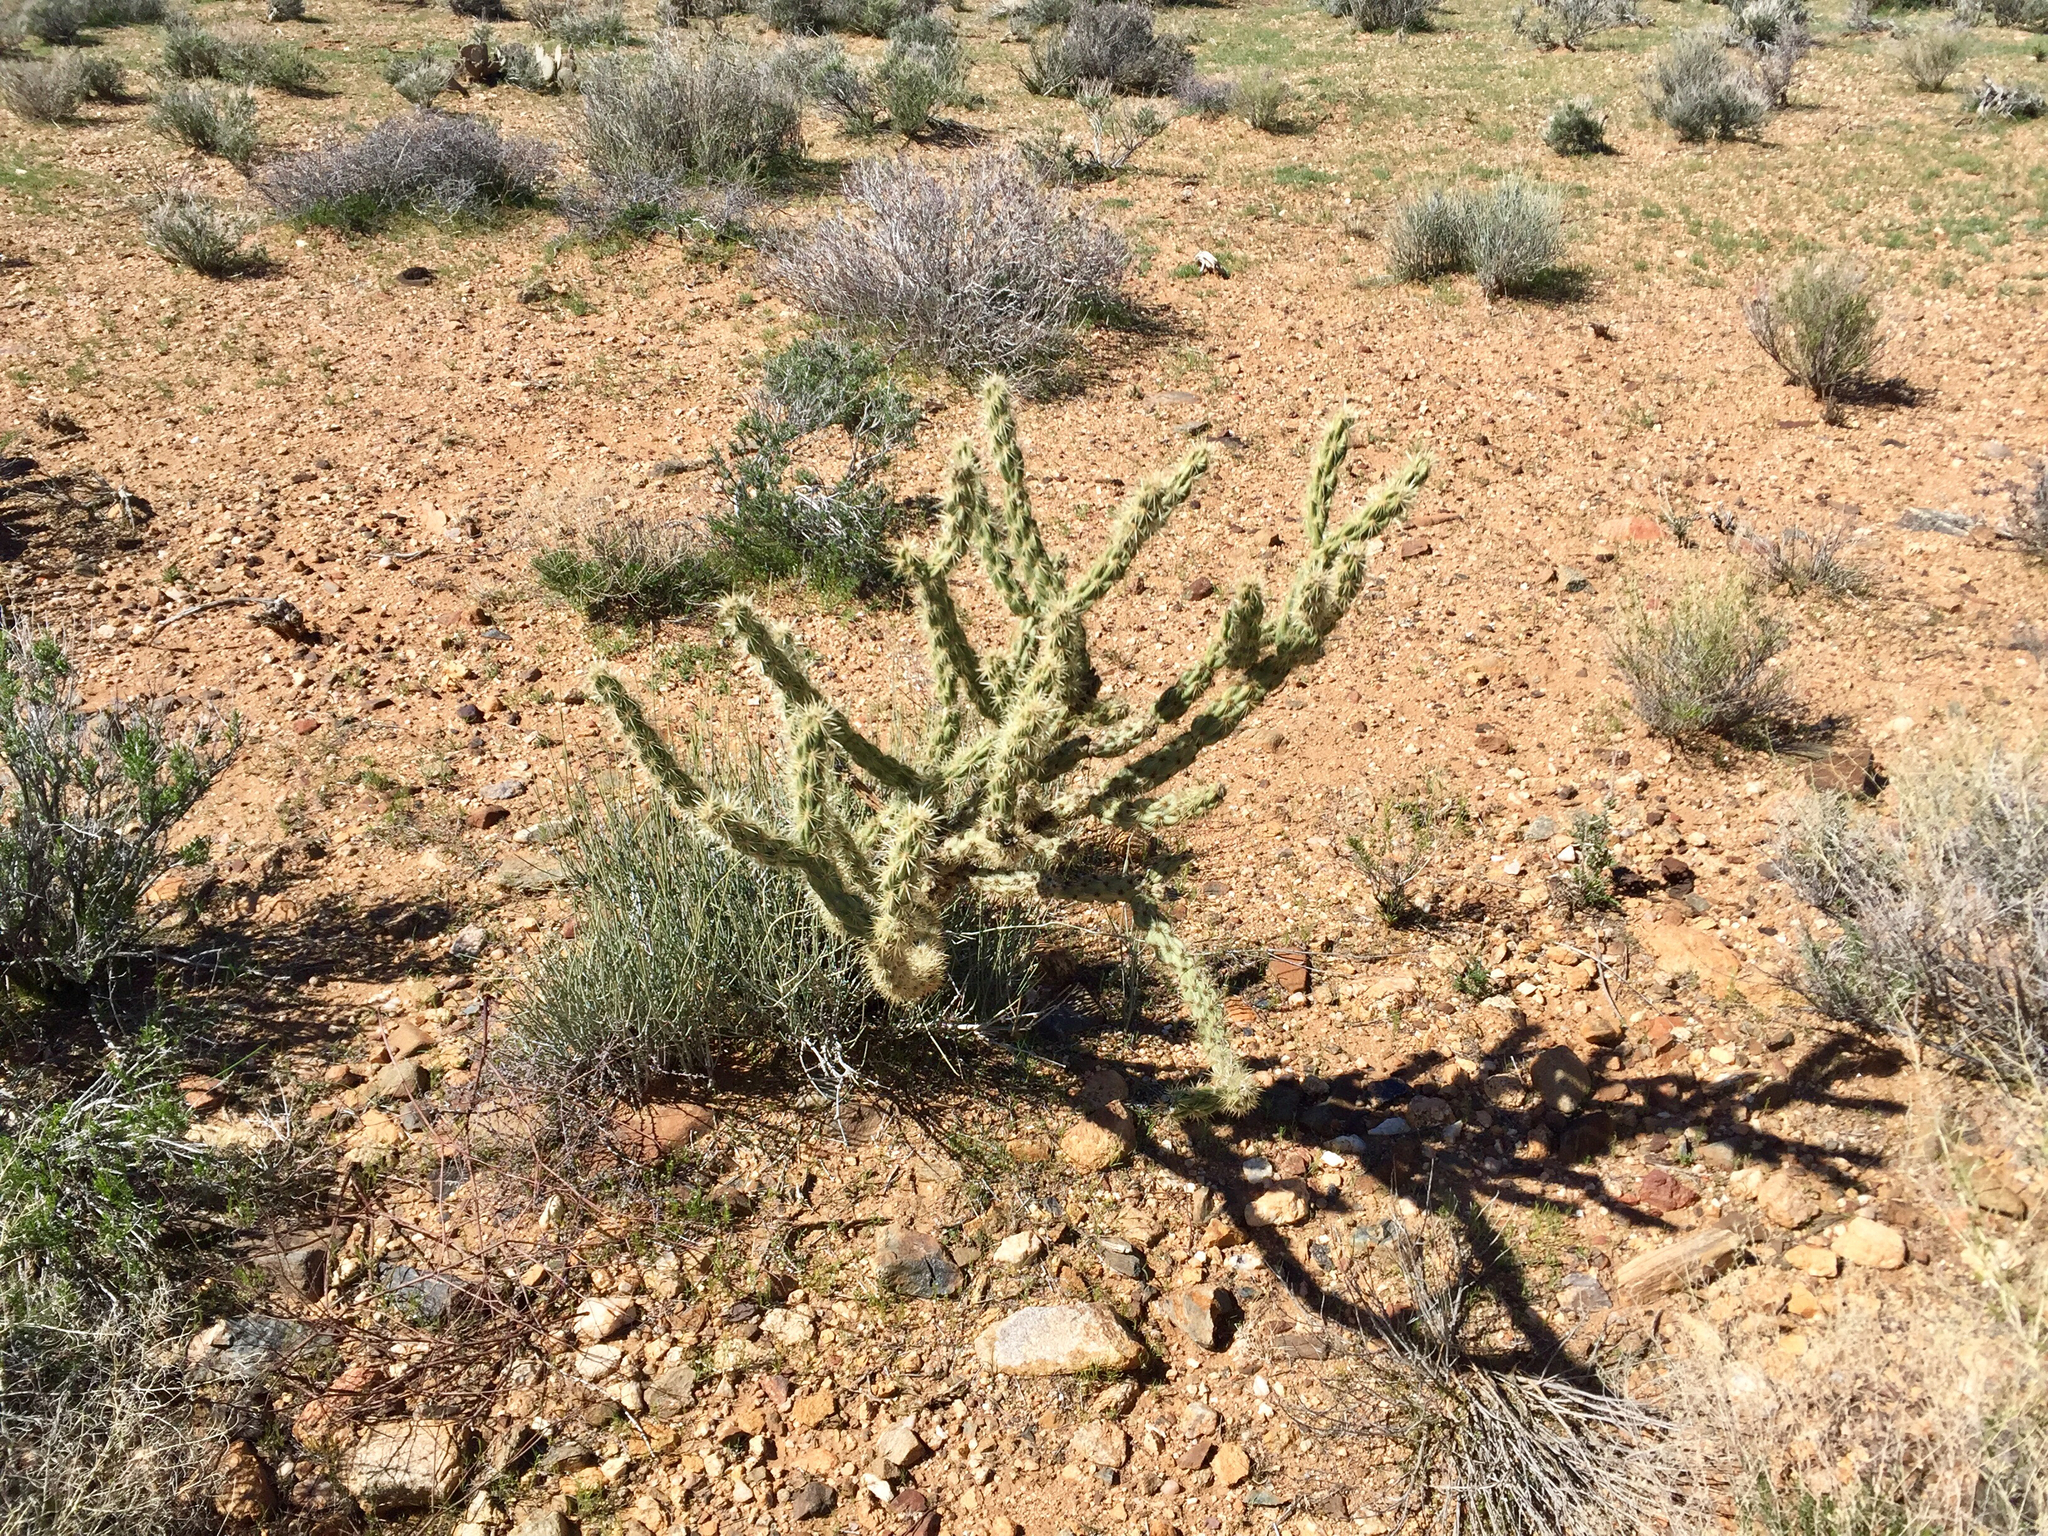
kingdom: Plantae
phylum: Tracheophyta
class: Magnoliopsida
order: Caryophyllales
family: Cactaceae
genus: Cylindropuntia
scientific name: Cylindropuntia acanthocarpa
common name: Buckhorn cholla
